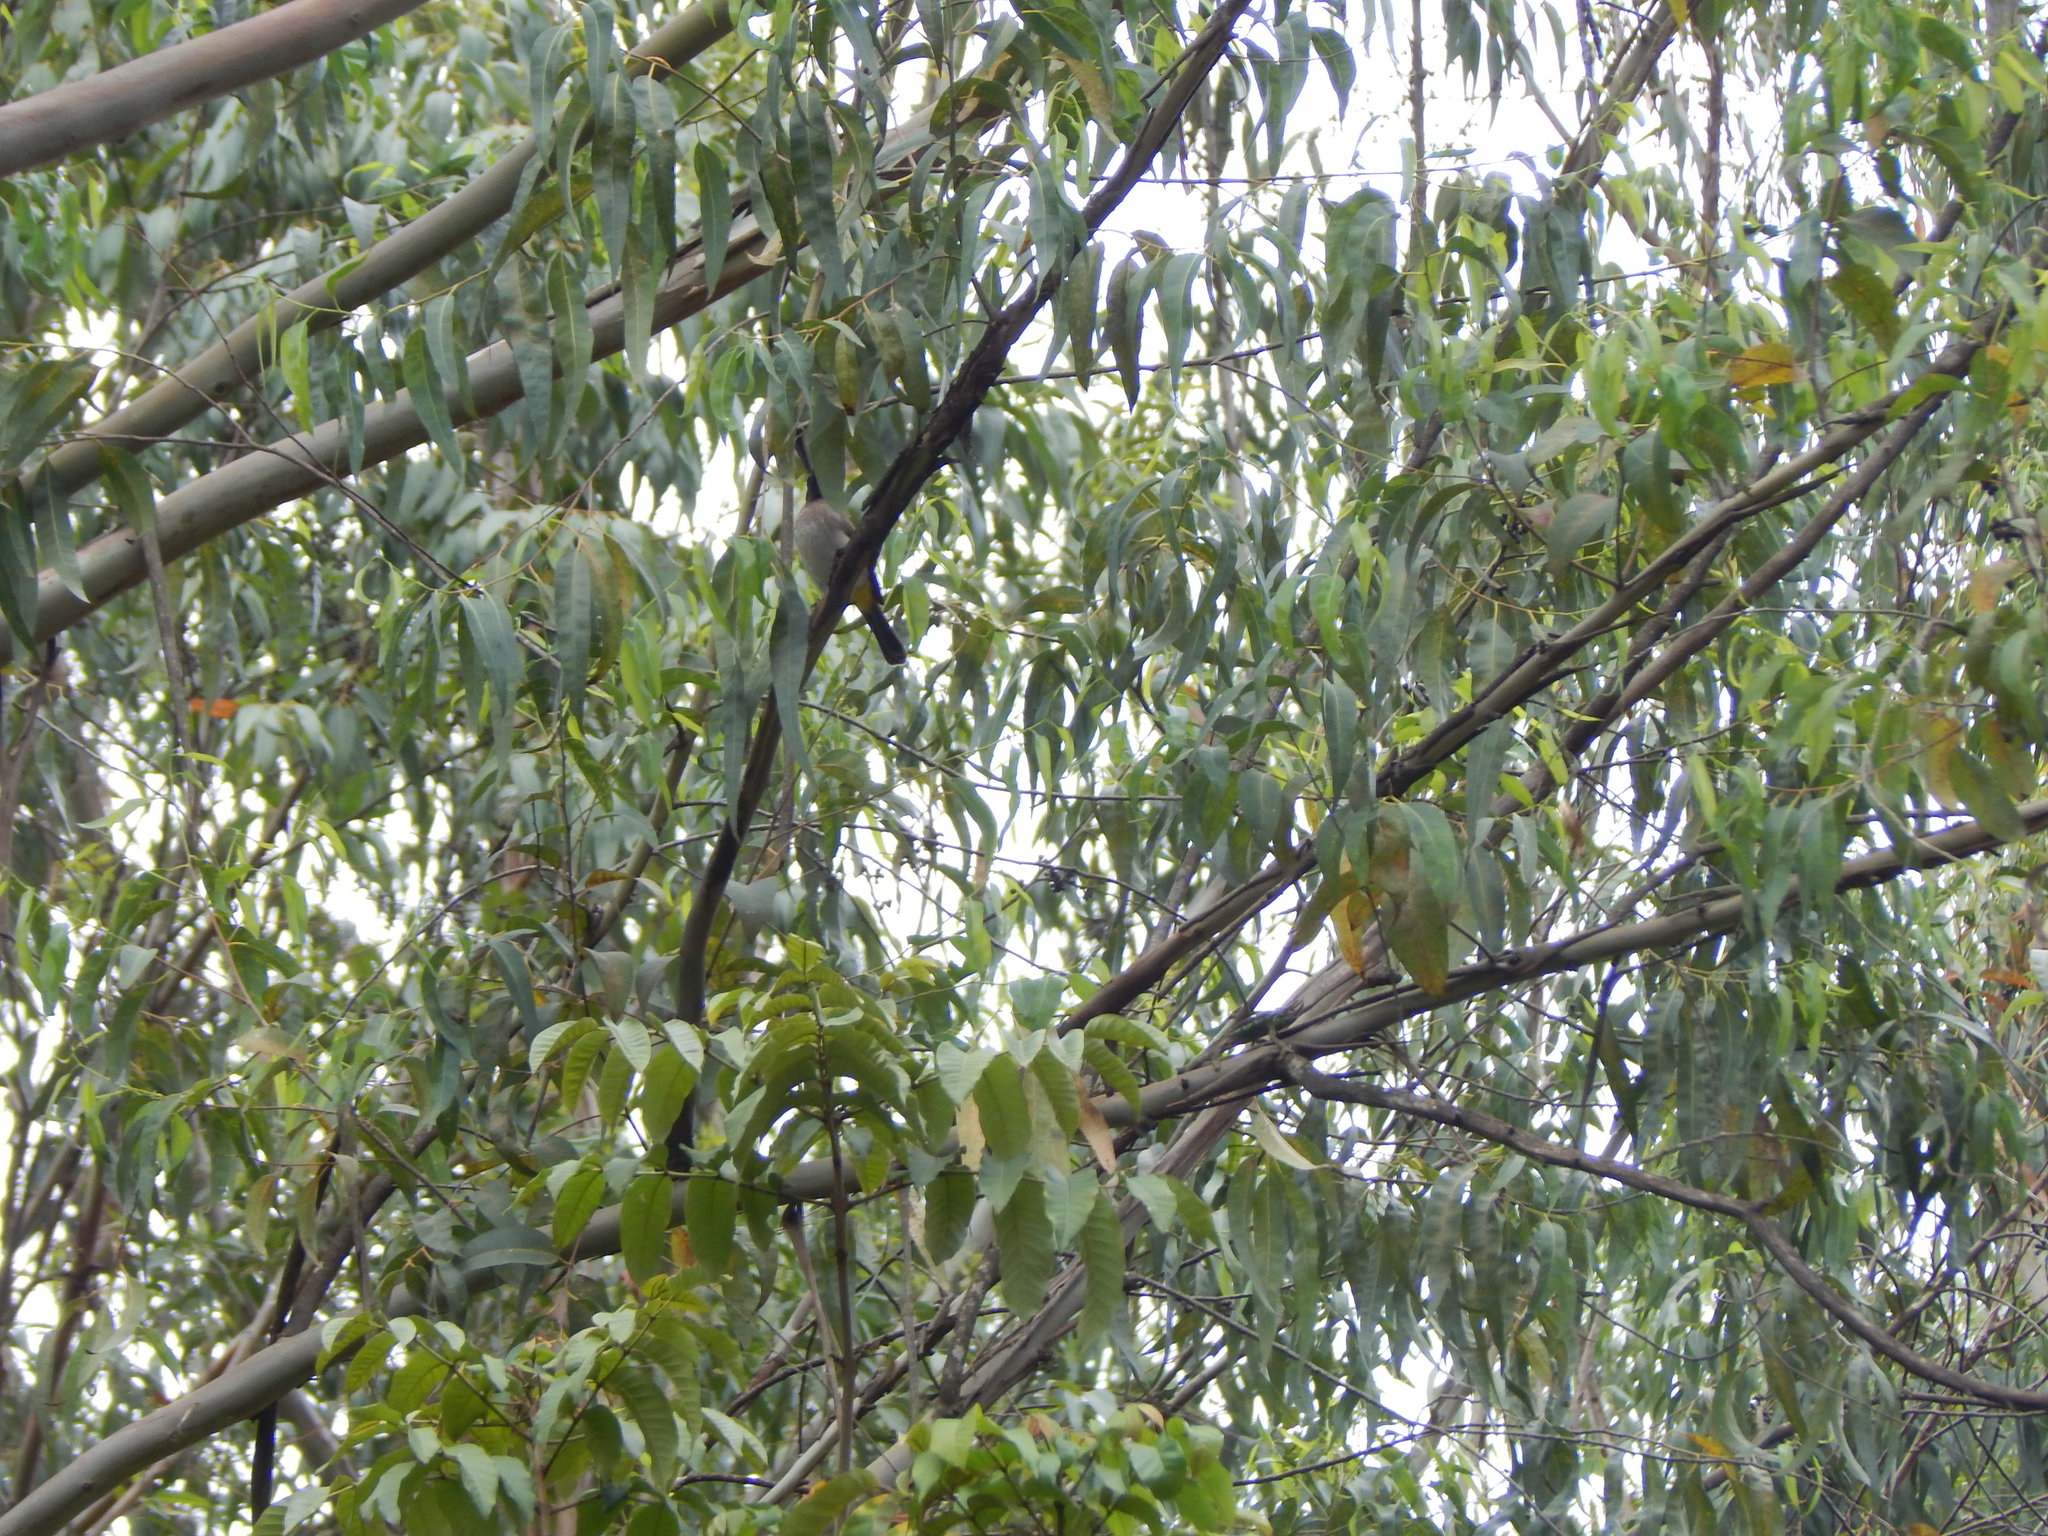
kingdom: Animalia
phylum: Chordata
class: Aves
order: Passeriformes
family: Pycnonotidae
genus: Pycnonotus
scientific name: Pycnonotus barbatus
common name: Common bulbul
